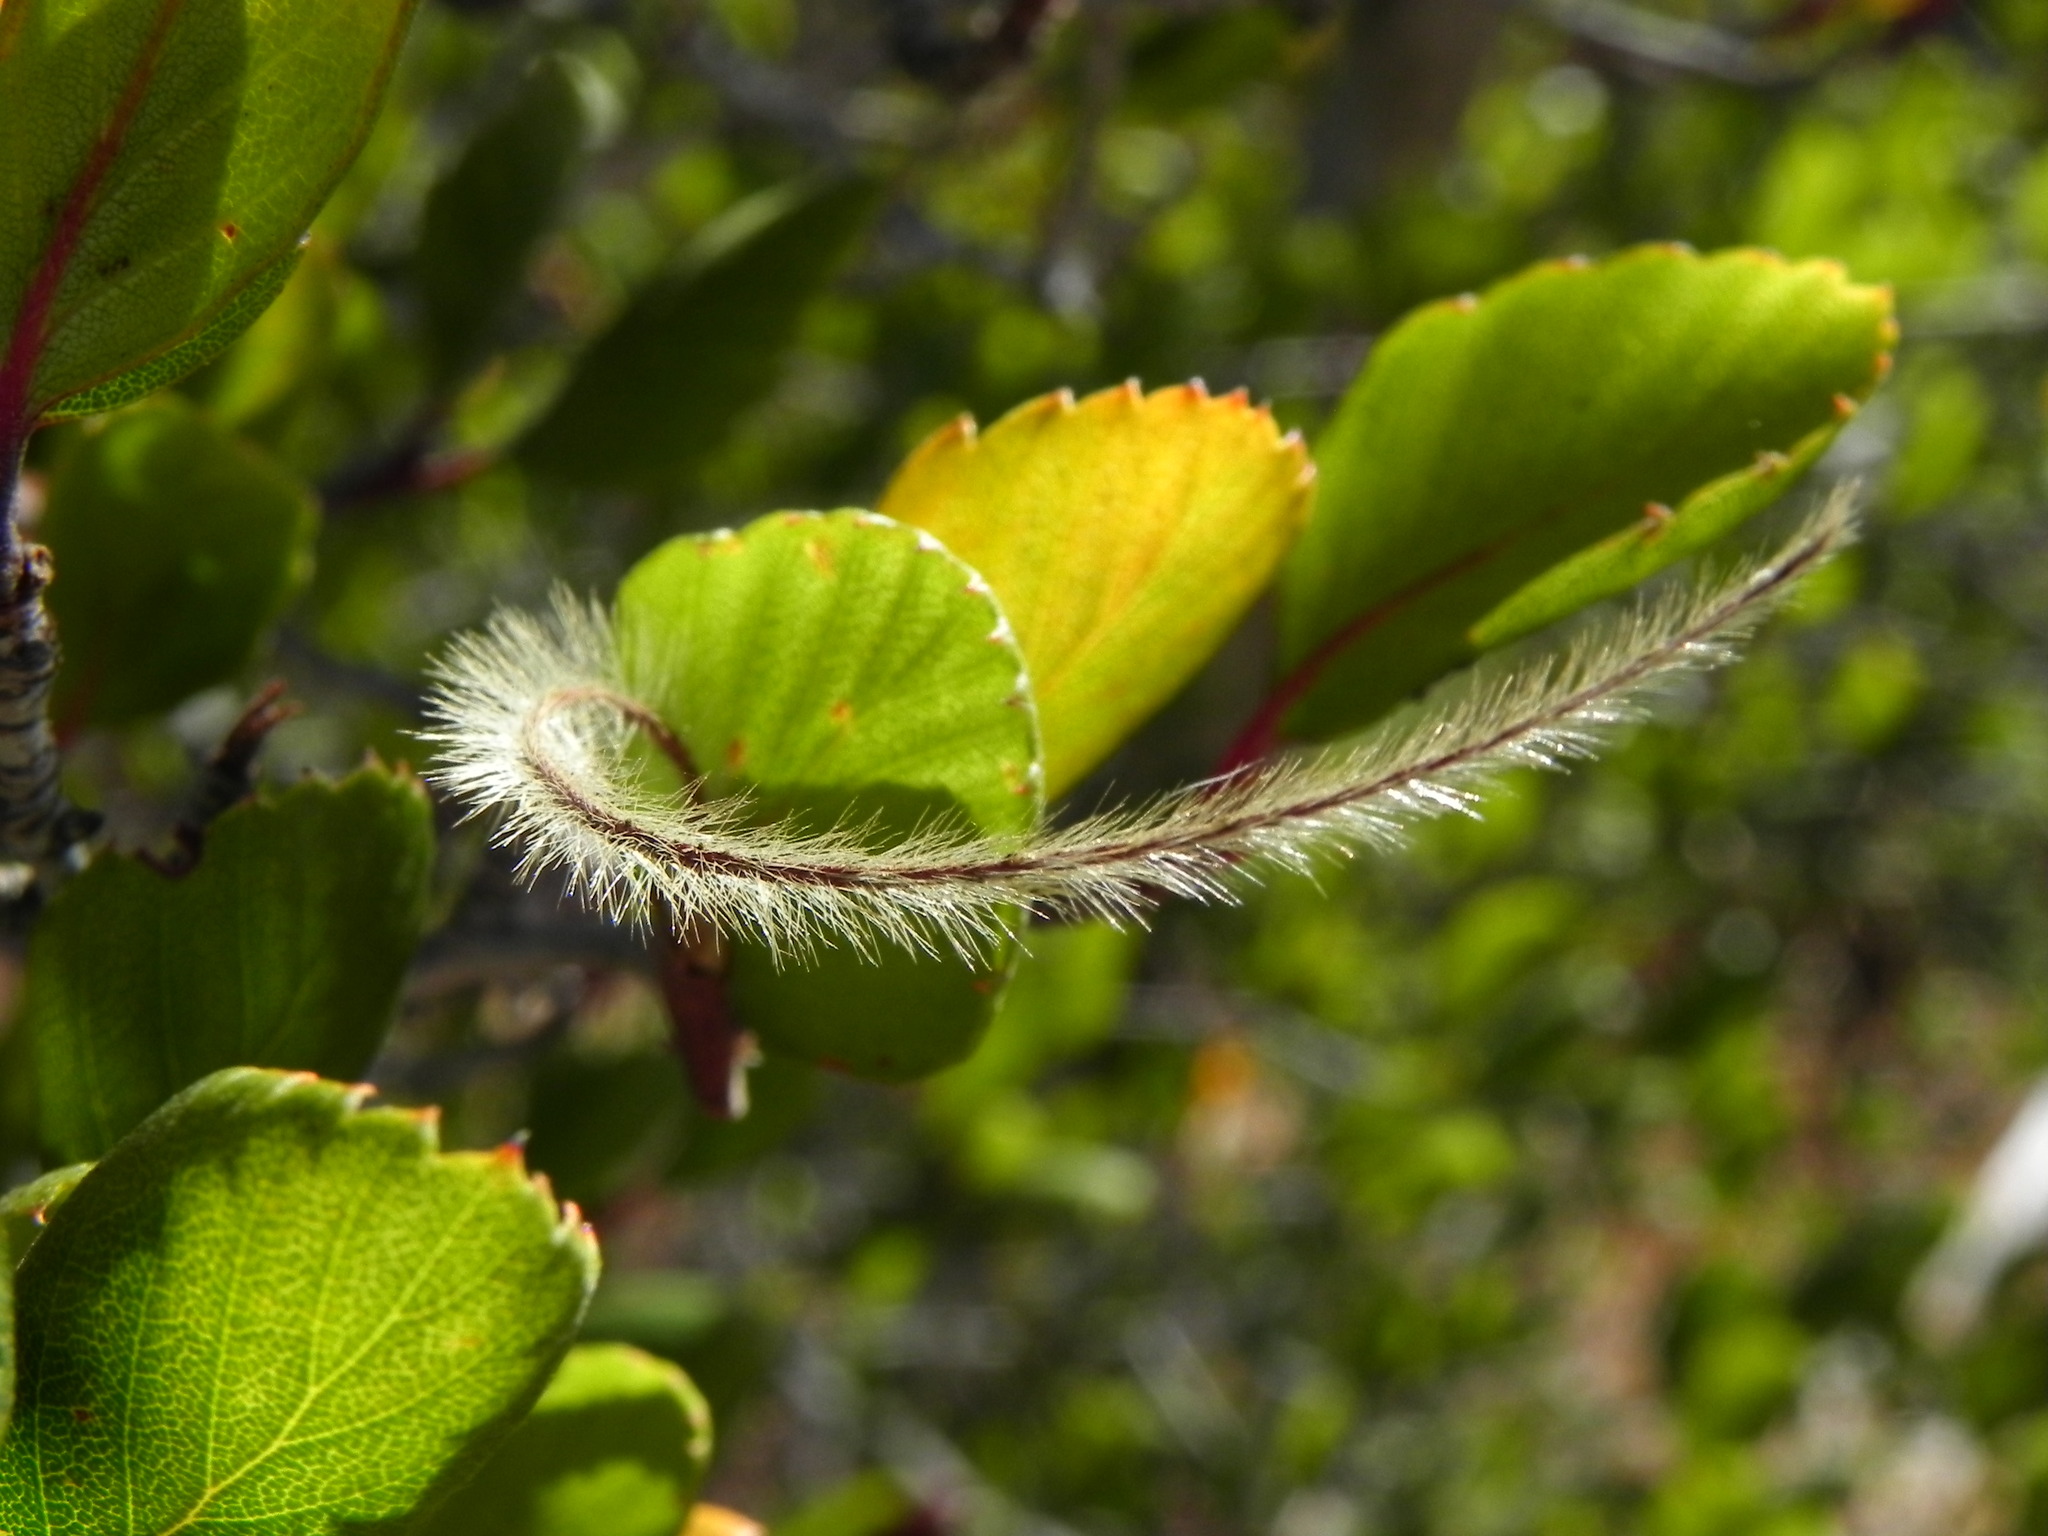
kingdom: Plantae
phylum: Tracheophyta
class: Magnoliopsida
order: Rosales
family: Rosaceae
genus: Cercocarpus
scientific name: Cercocarpus montanus
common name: Alder-leaf cercocarpus
